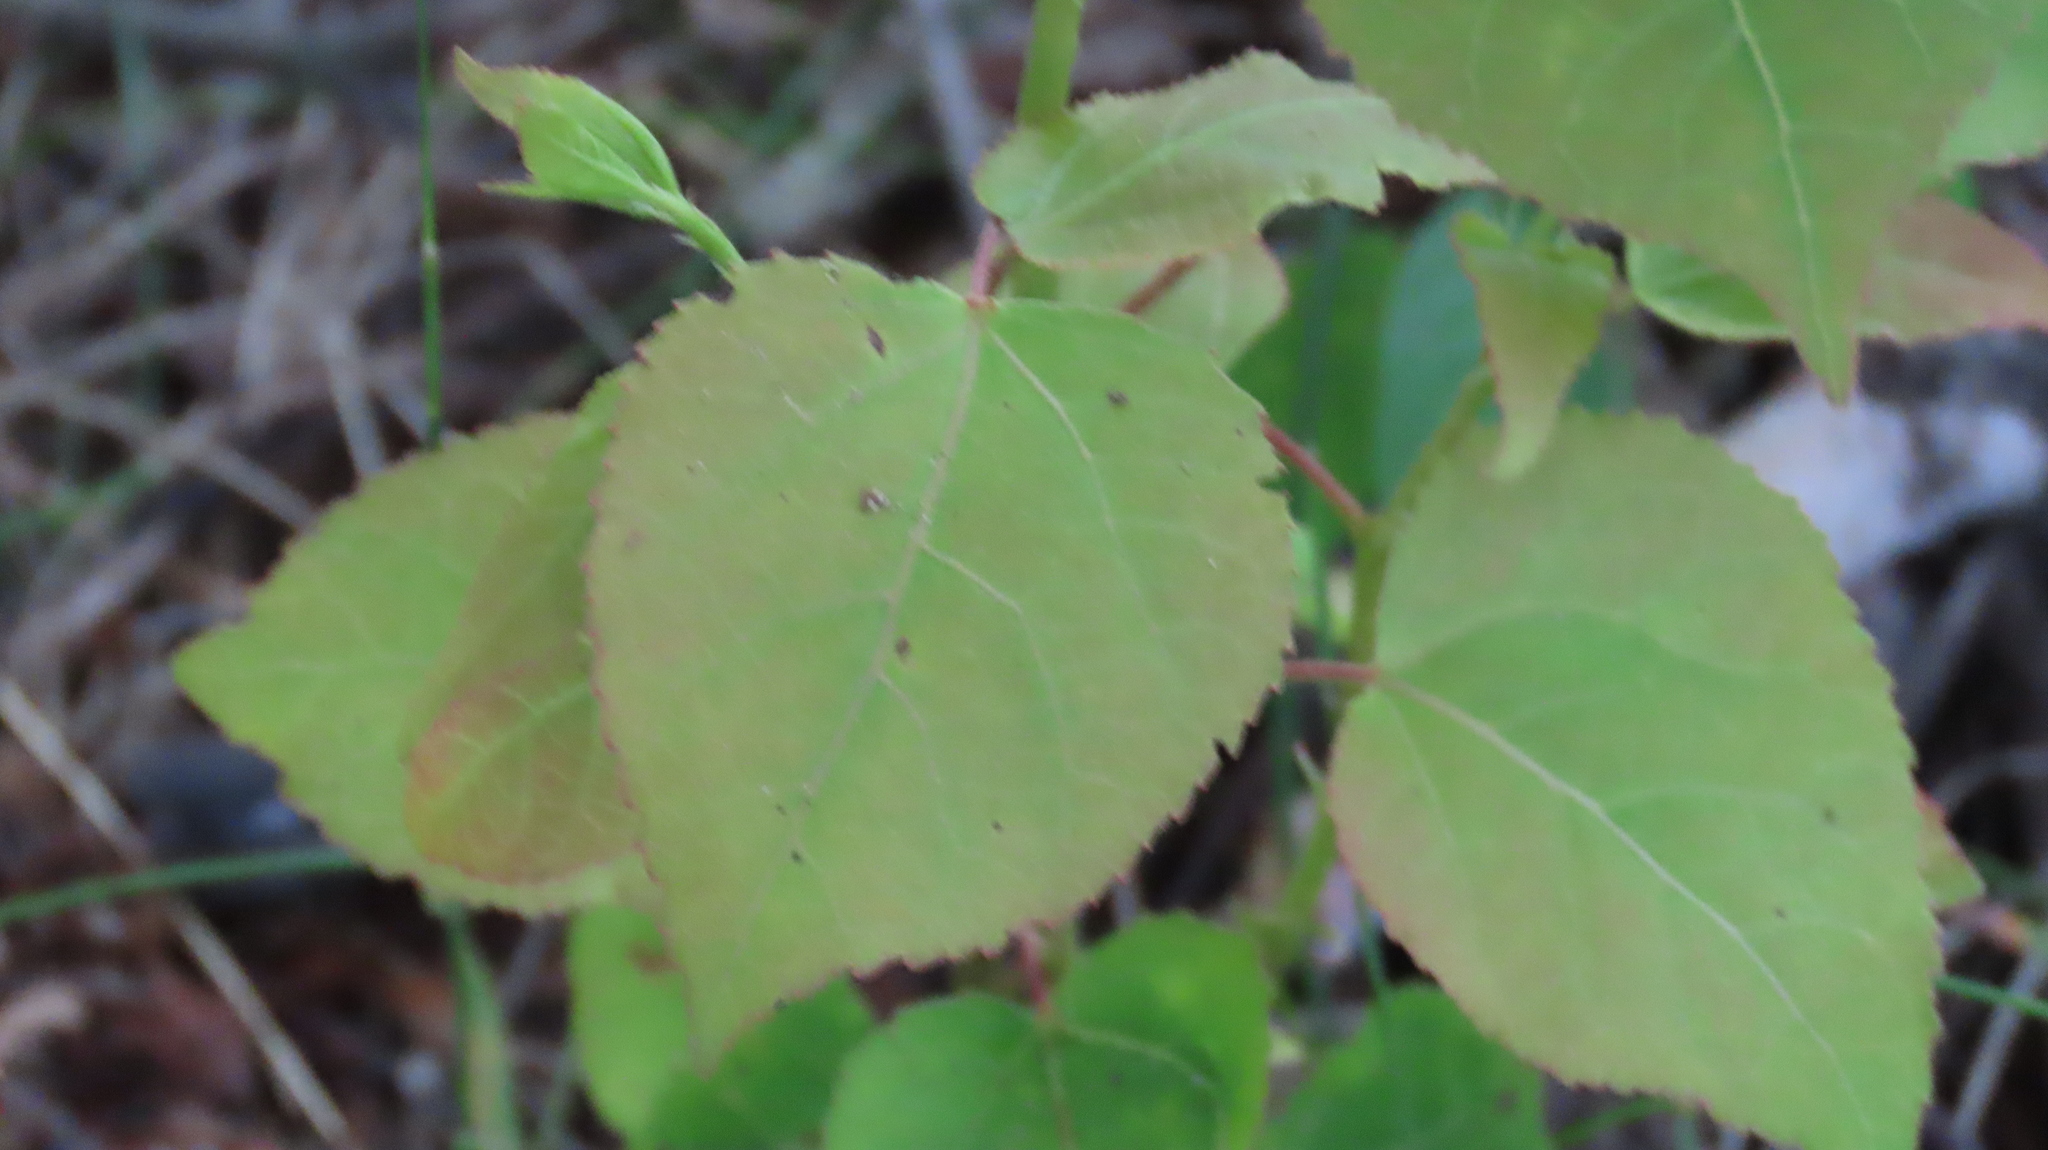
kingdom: Plantae
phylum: Tracheophyta
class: Magnoliopsida
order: Malpighiales
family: Salicaceae
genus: Populus
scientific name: Populus tremuloides
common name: Quaking aspen
